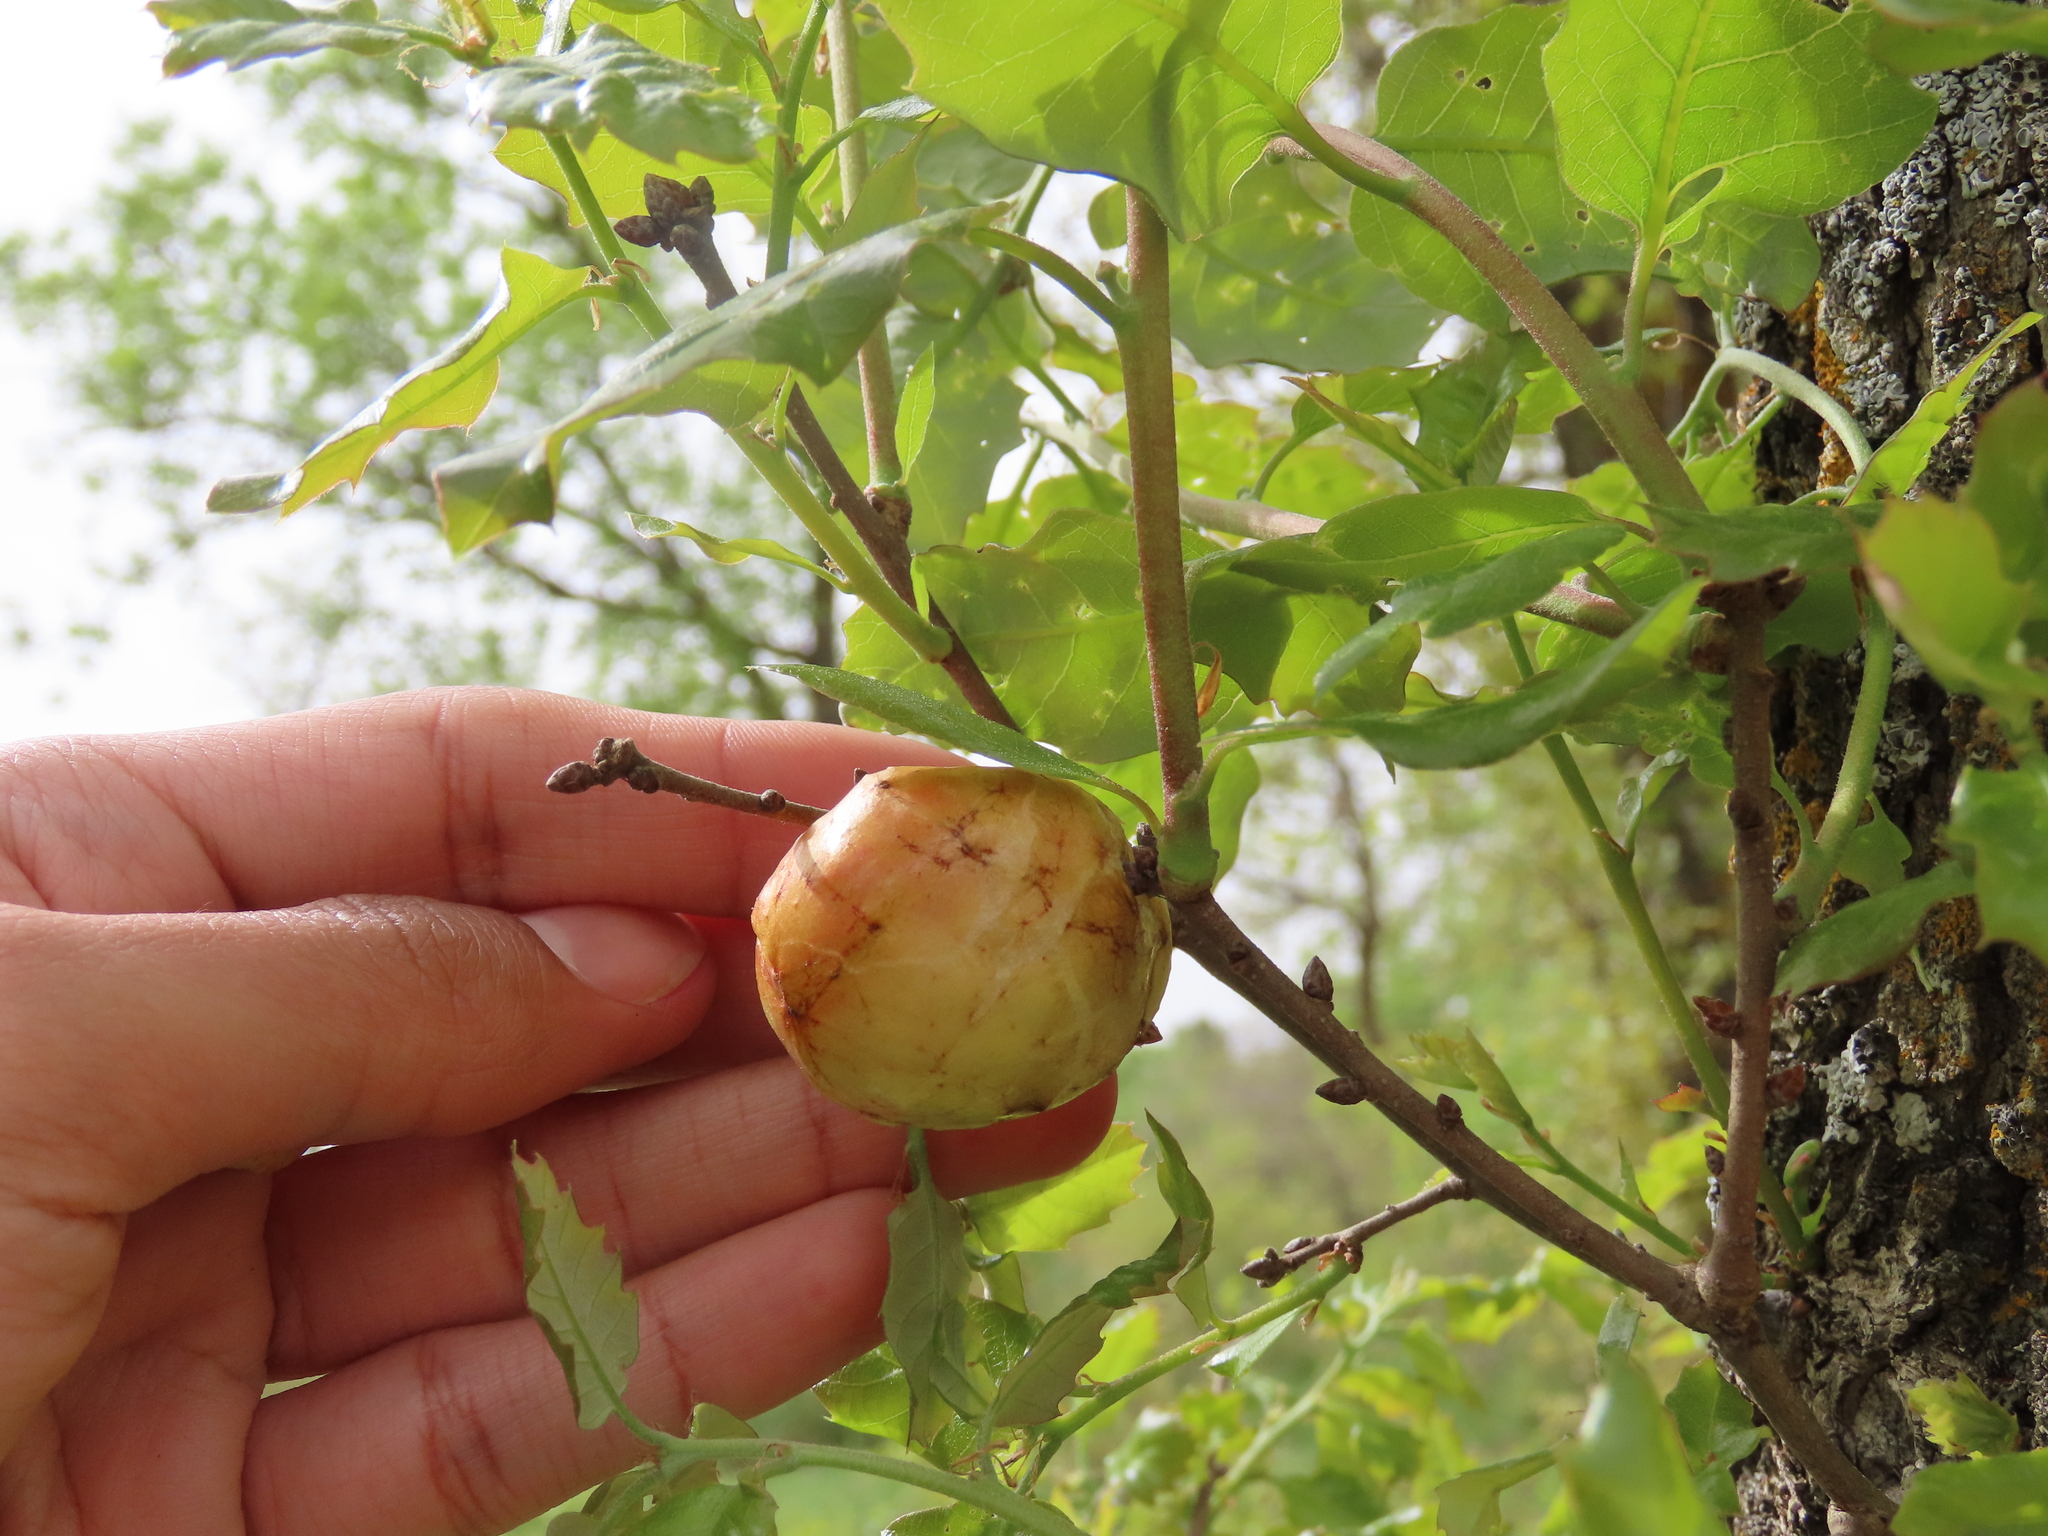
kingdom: Animalia
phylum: Arthropoda
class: Insecta
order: Hymenoptera
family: Cynipidae
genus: Biorhiza
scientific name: Biorhiza pallida
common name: Oak apple
